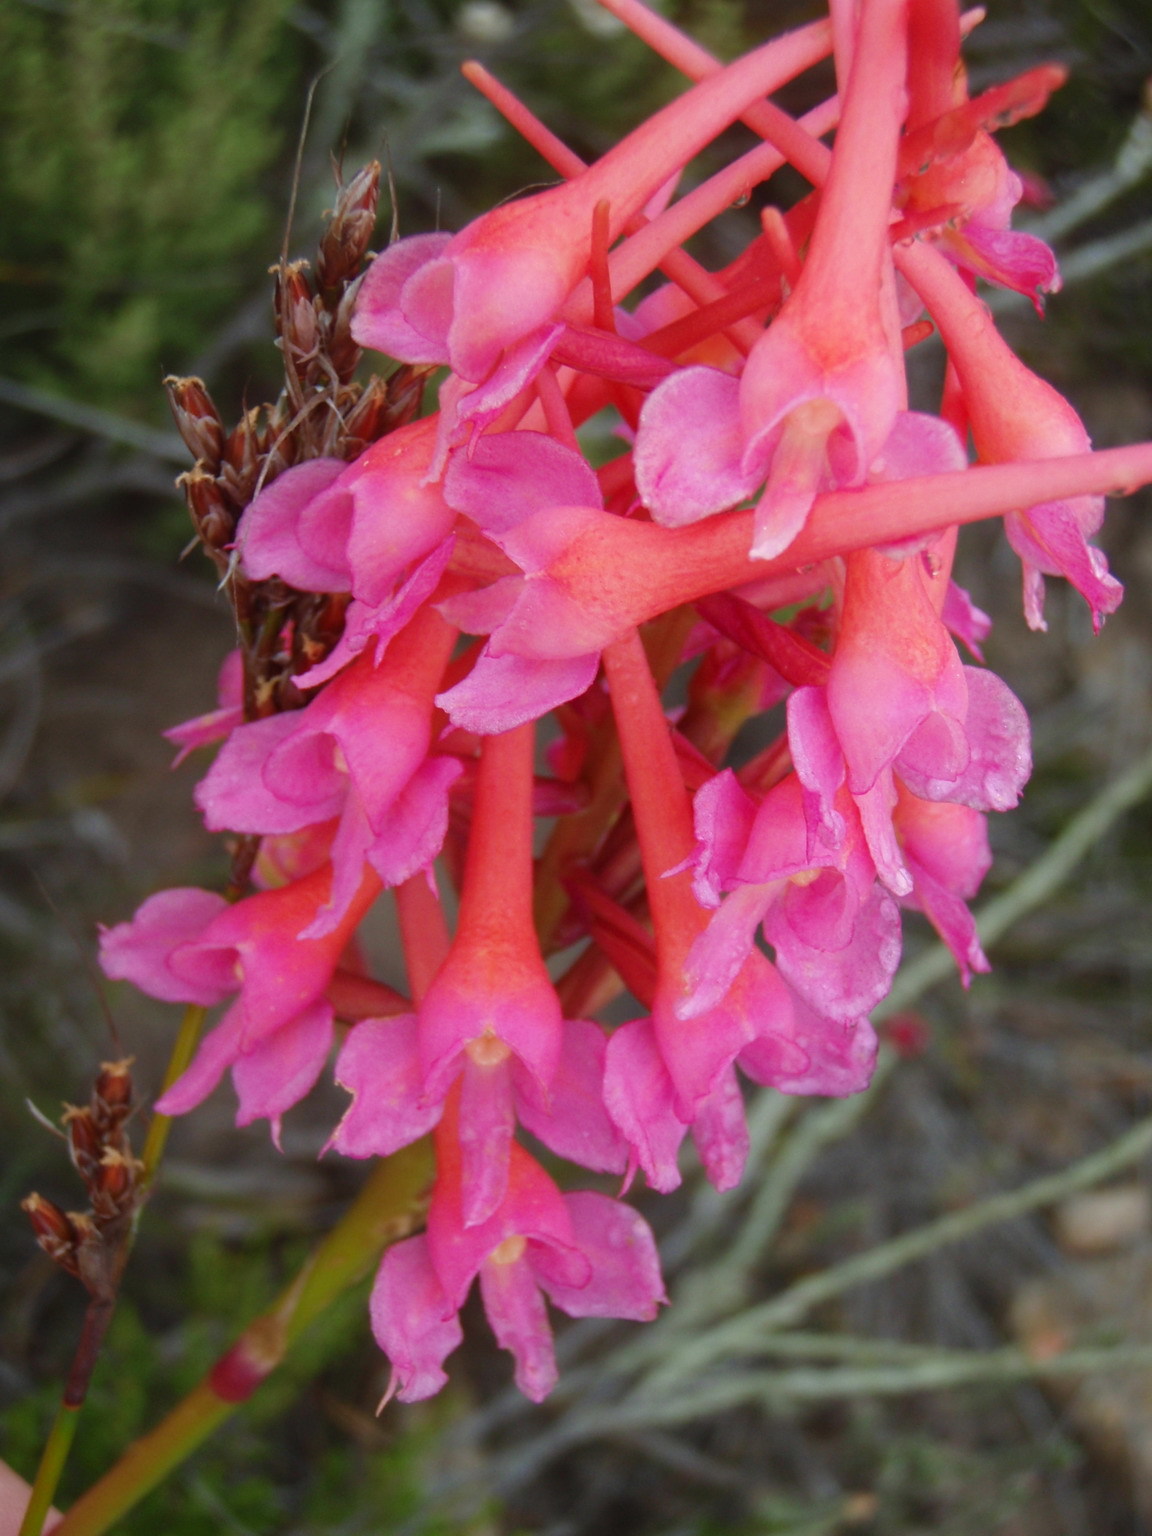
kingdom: Plantae
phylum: Tracheophyta
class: Liliopsida
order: Asparagales
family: Orchidaceae
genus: Disa
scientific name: Disa porrecta
